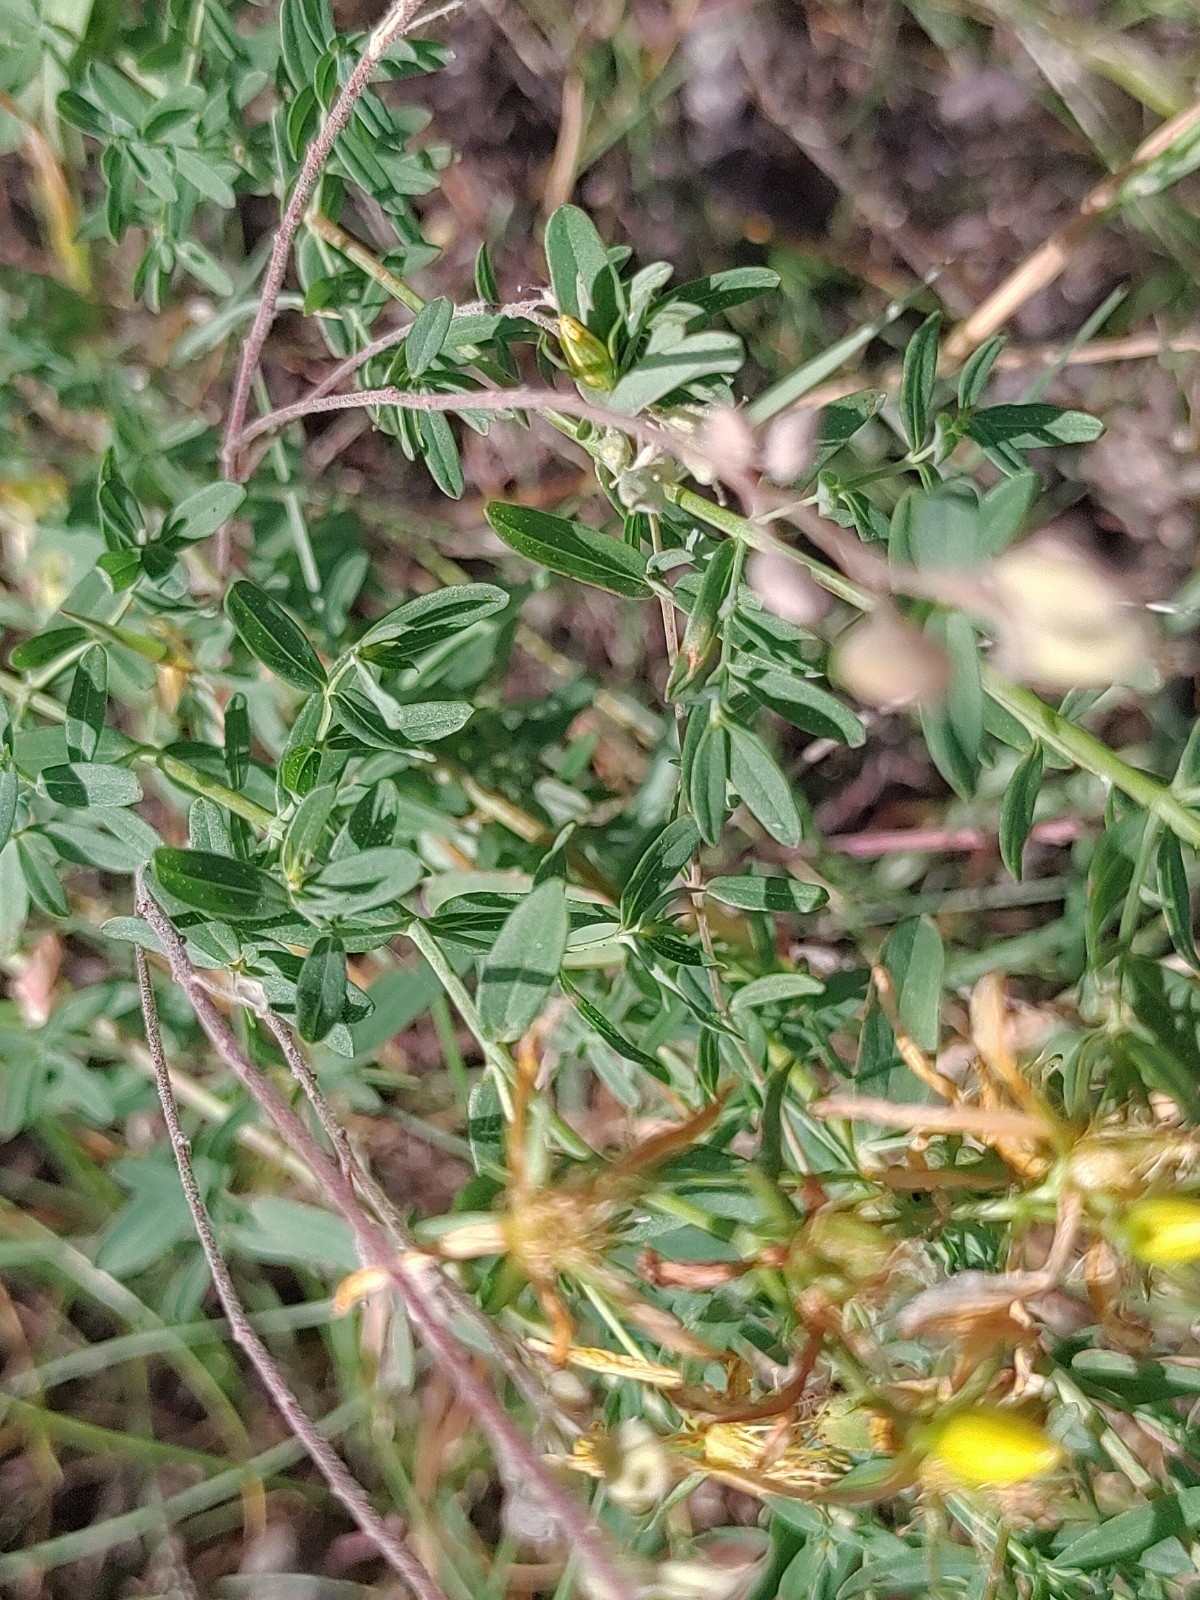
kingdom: Plantae
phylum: Tracheophyta
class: Magnoliopsida
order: Malpighiales
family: Hypericaceae
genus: Hypericum
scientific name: Hypericum perforatum
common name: Common st. johnswort
